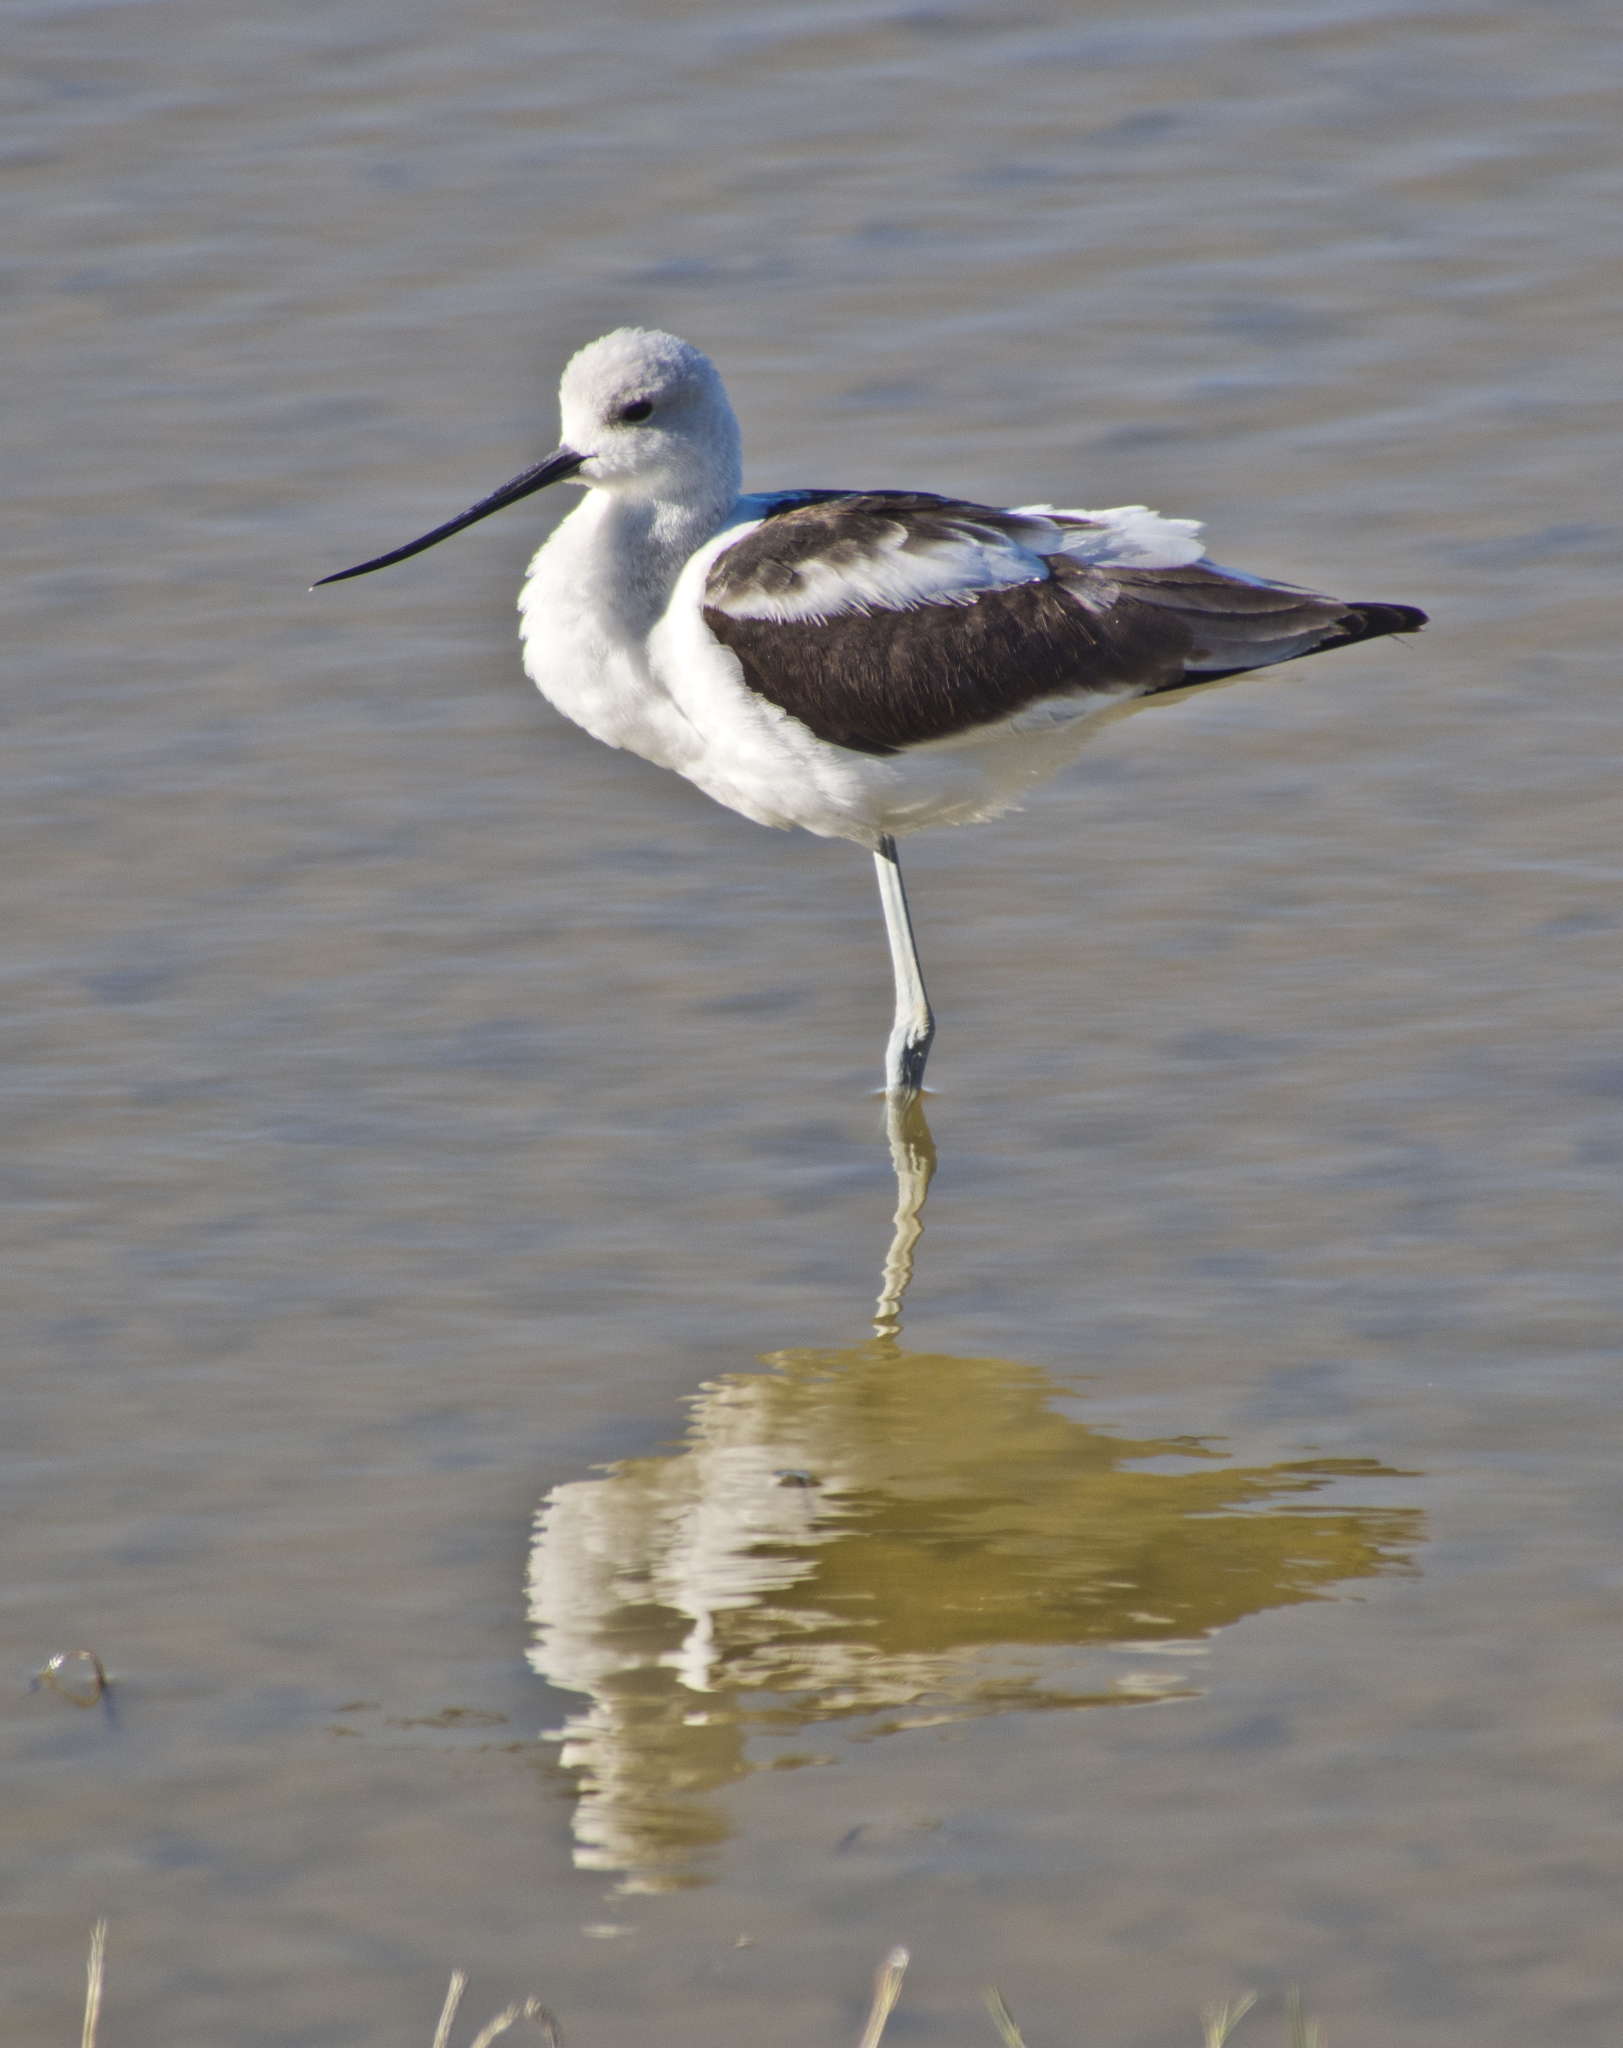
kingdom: Animalia
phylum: Chordata
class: Aves
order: Charadriiformes
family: Recurvirostridae
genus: Recurvirostra
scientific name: Recurvirostra americana
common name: American avocet
